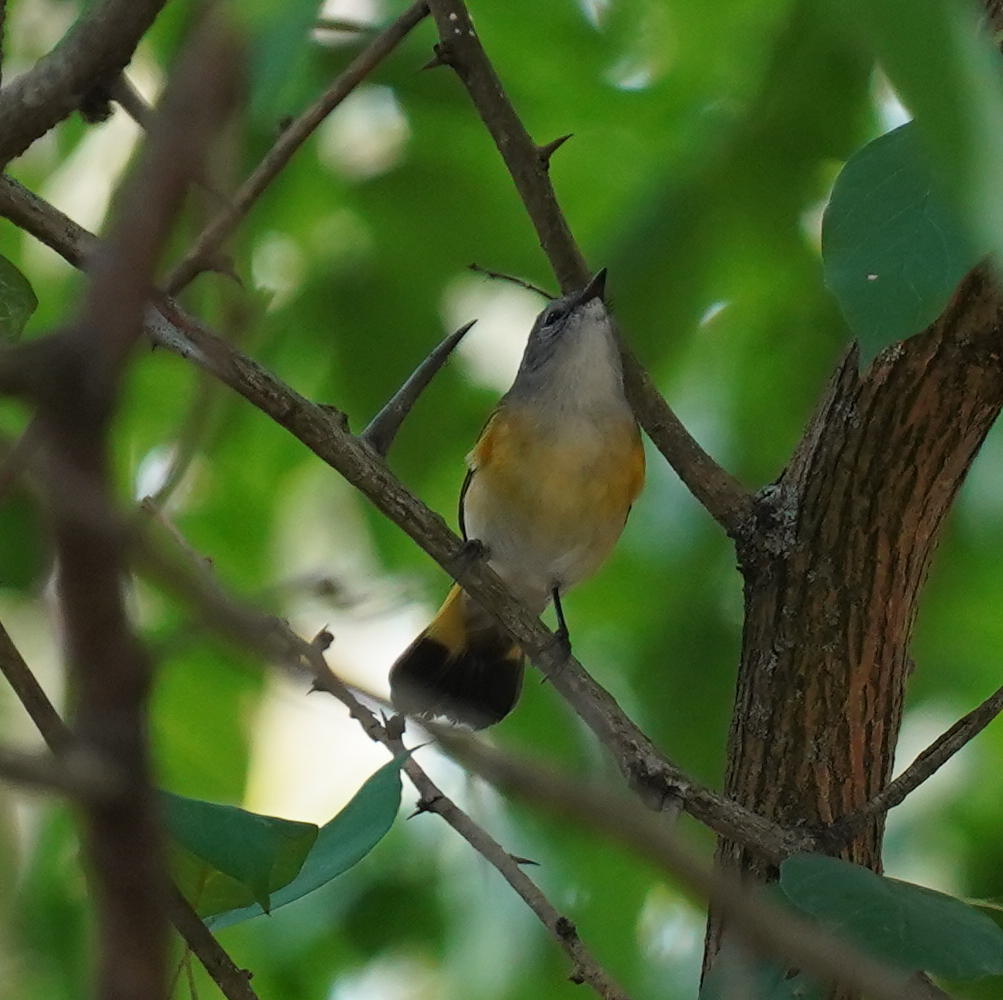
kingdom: Animalia
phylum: Chordata
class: Aves
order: Passeriformes
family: Parulidae
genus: Setophaga
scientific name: Setophaga ruticilla
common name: American redstart
